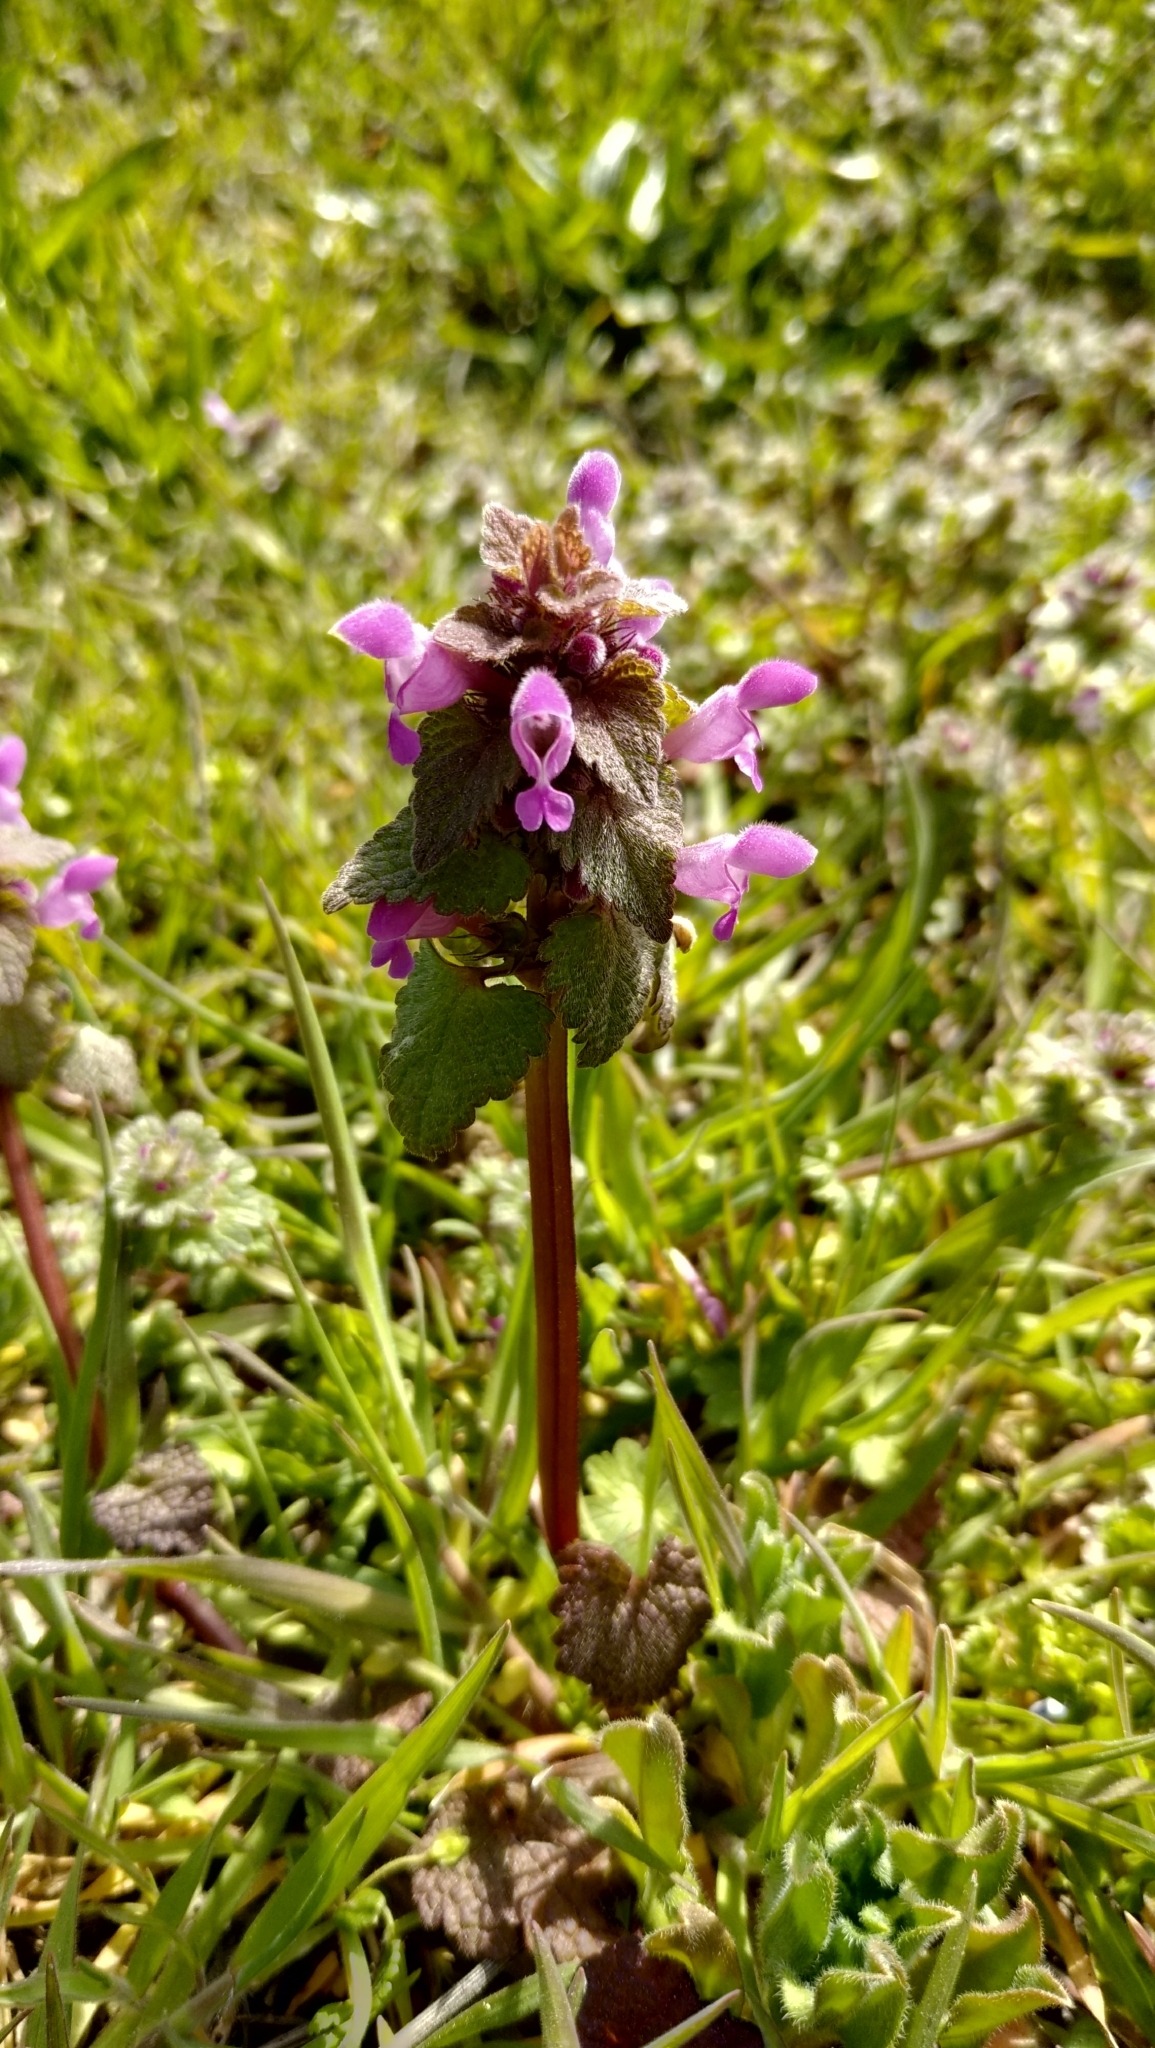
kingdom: Plantae
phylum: Tracheophyta
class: Magnoliopsida
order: Lamiales
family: Lamiaceae
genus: Lamium
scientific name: Lamium purpureum
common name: Red dead-nettle
